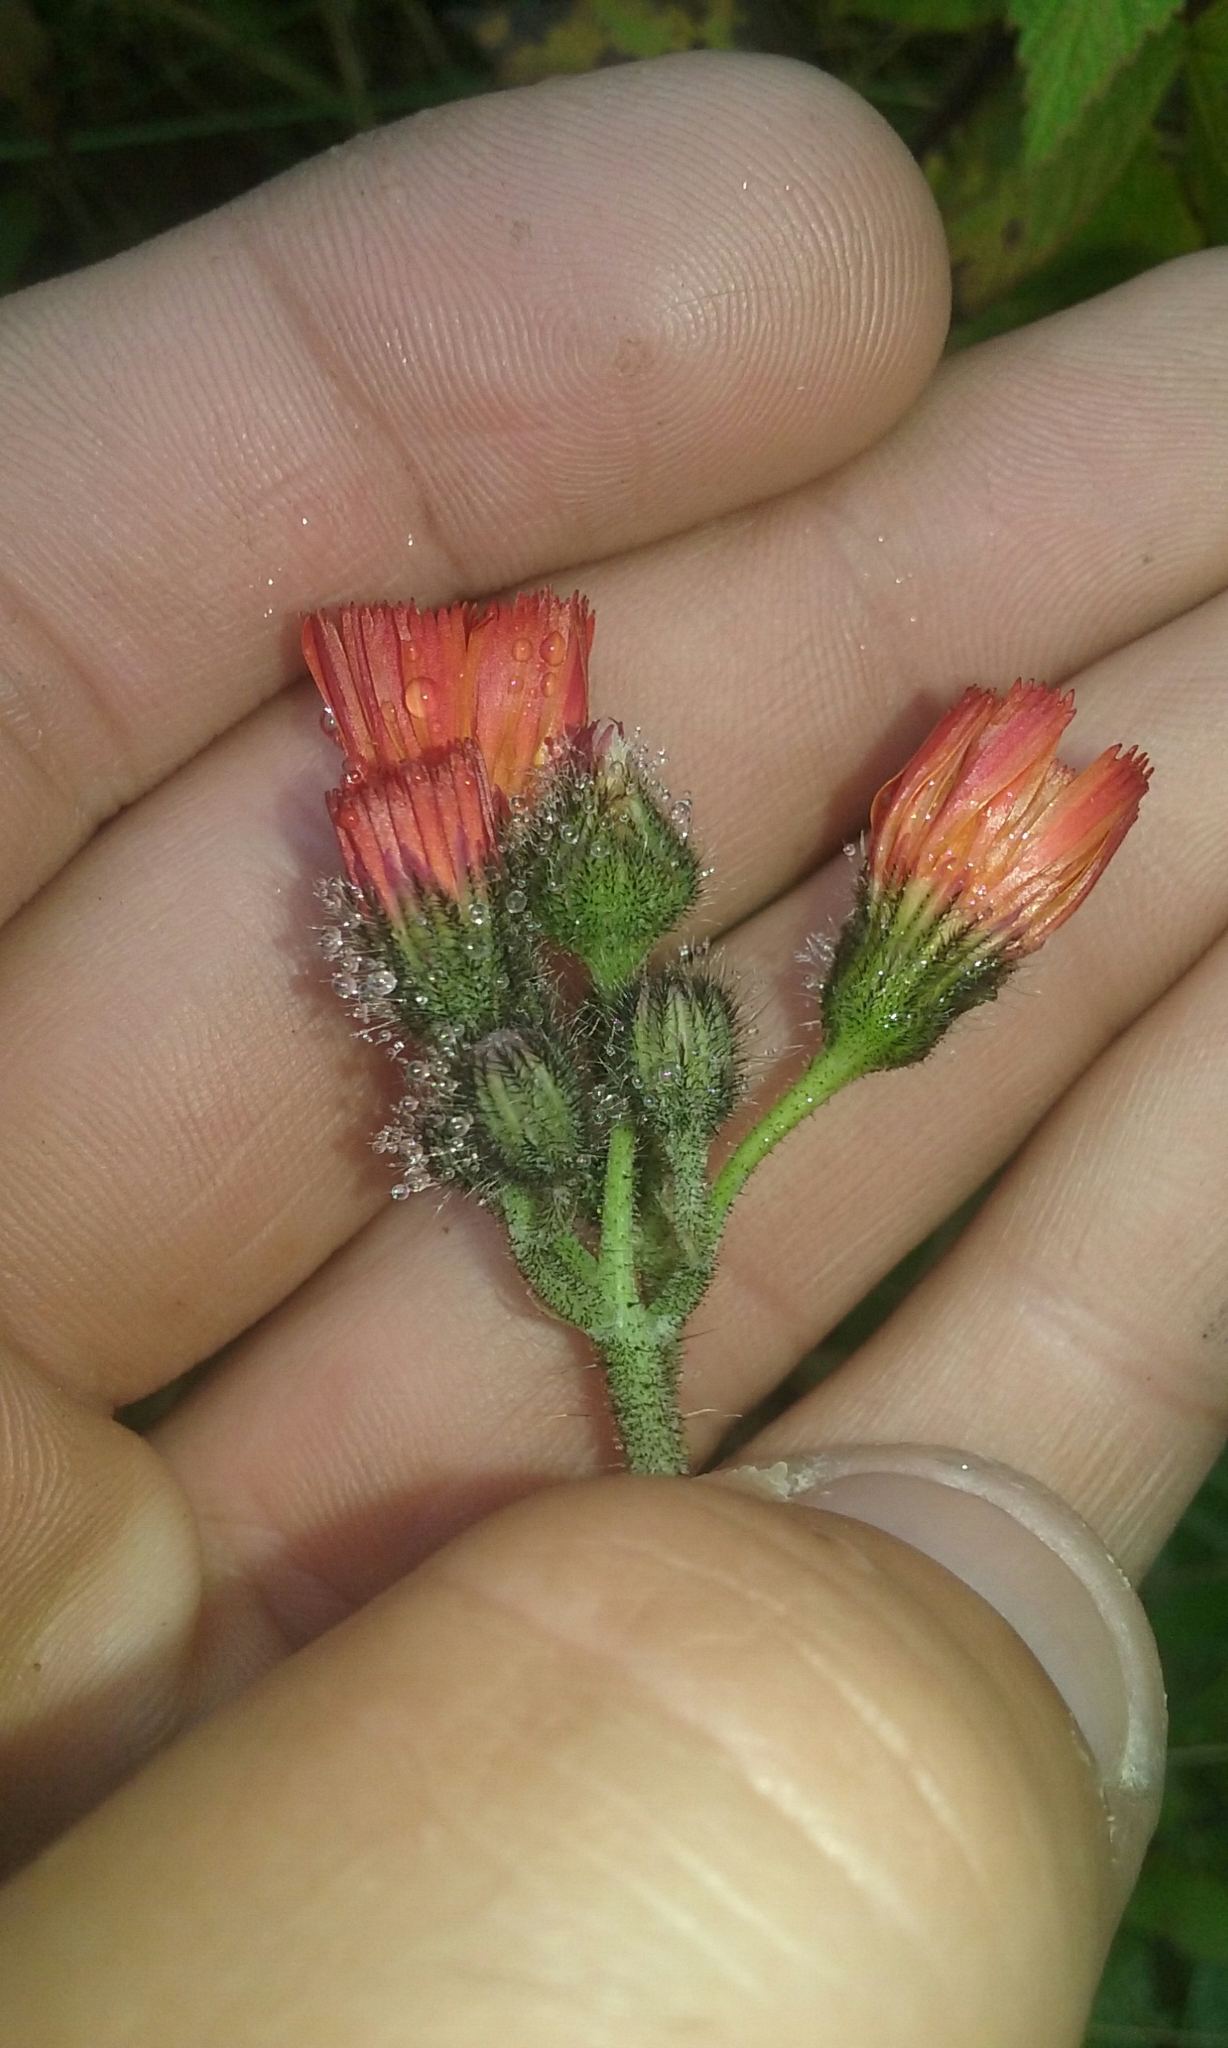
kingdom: Plantae
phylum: Tracheophyta
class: Magnoliopsida
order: Asterales
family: Asteraceae
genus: Pilosella
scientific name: Pilosella aurantiaca
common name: Fox-and-cubs
